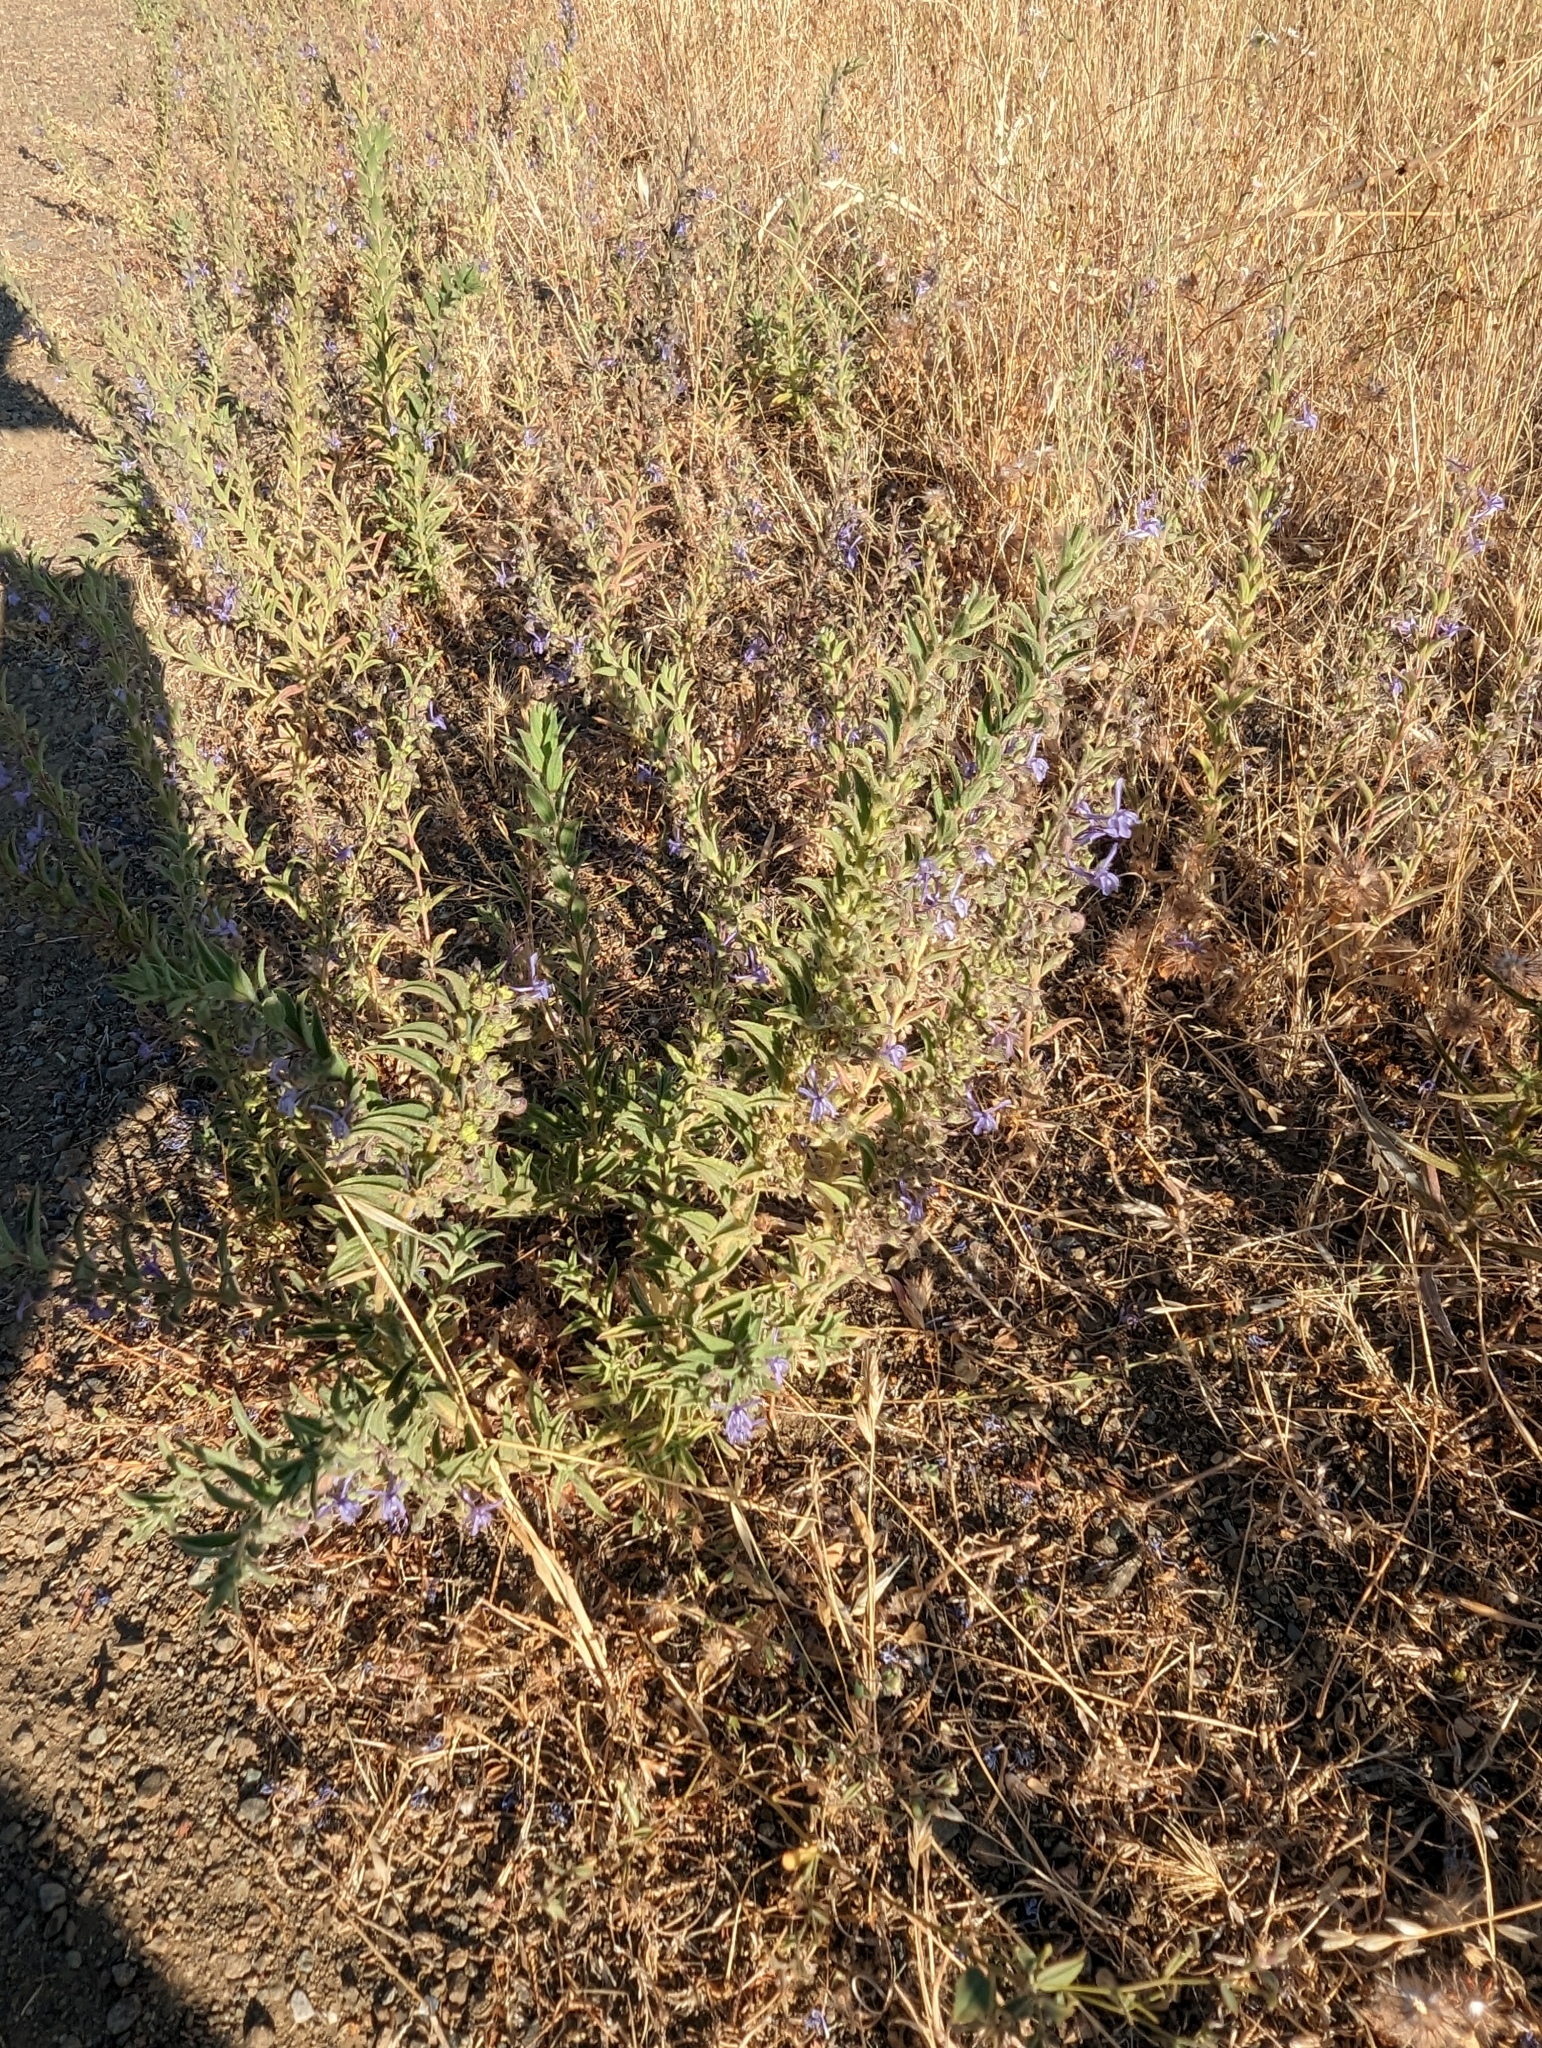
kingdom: Plantae
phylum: Tracheophyta
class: Magnoliopsida
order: Lamiales
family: Lamiaceae
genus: Trichostema
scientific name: Trichostema lanceolatum
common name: Vinegar-weed
